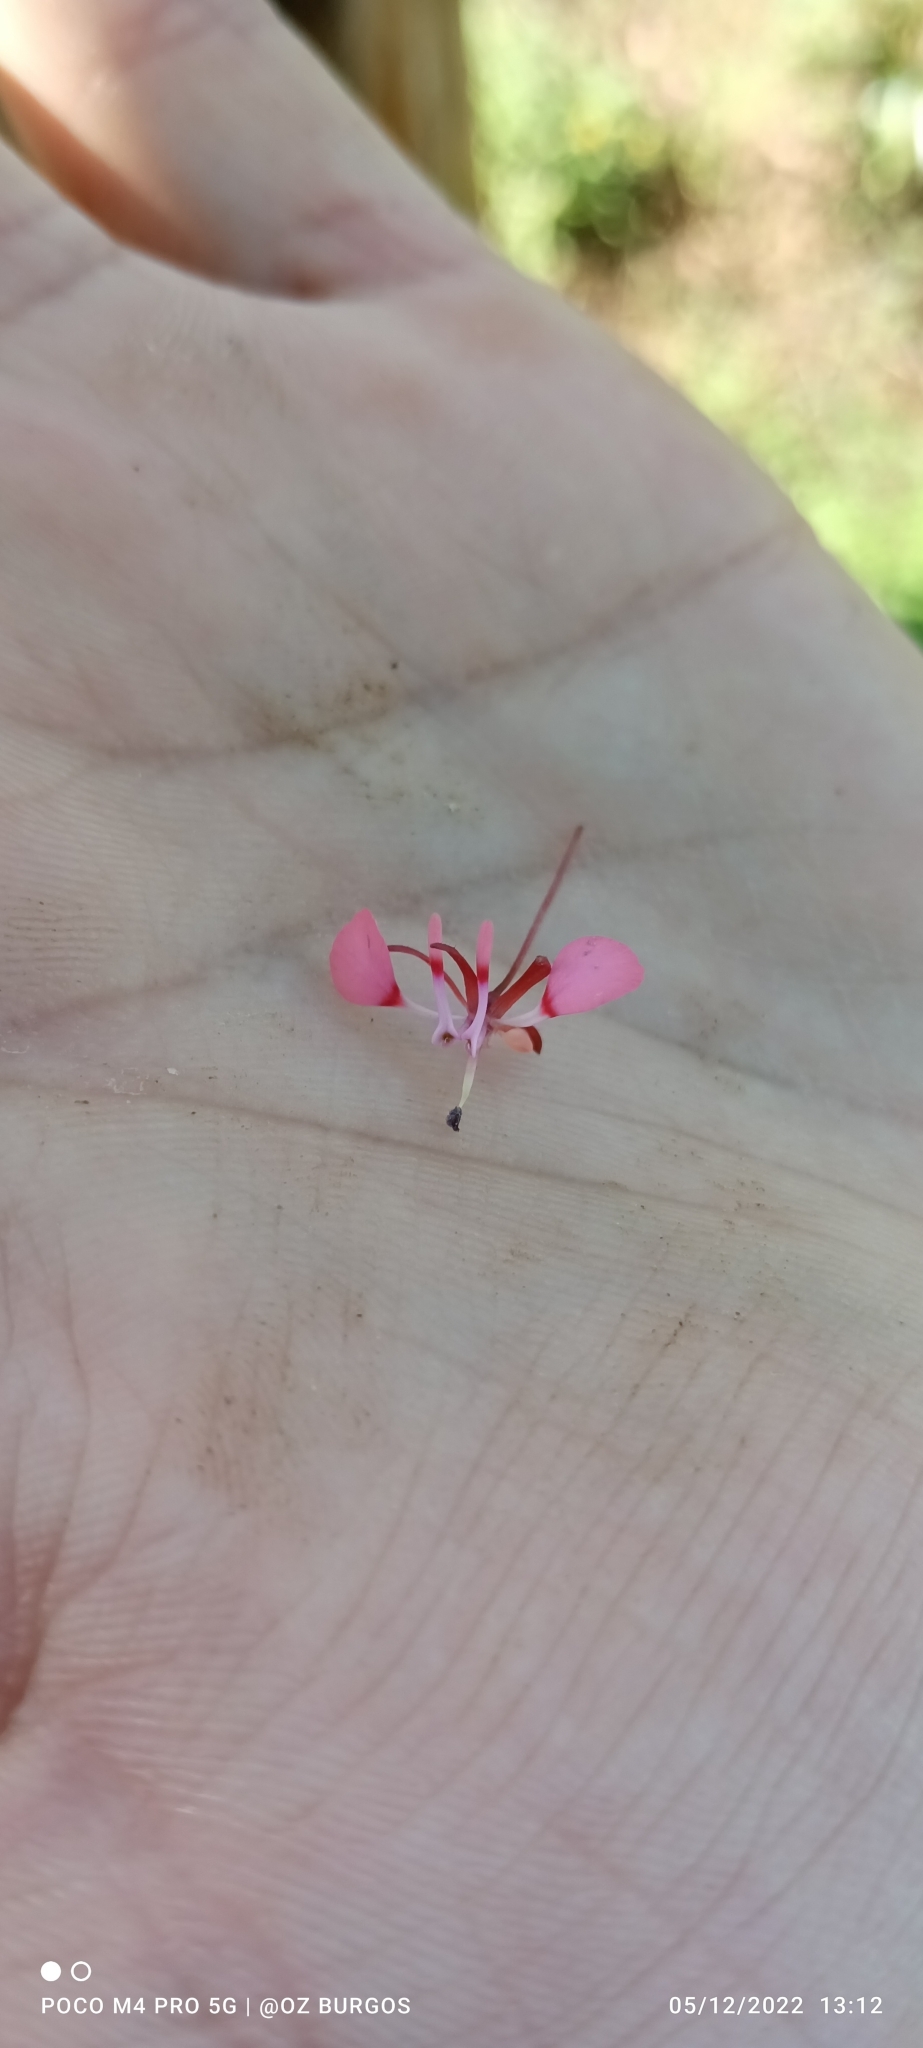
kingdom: Plantae
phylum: Tracheophyta
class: Magnoliopsida
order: Myrtales
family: Onagraceae
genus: Lopezia
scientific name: Lopezia racemosa
